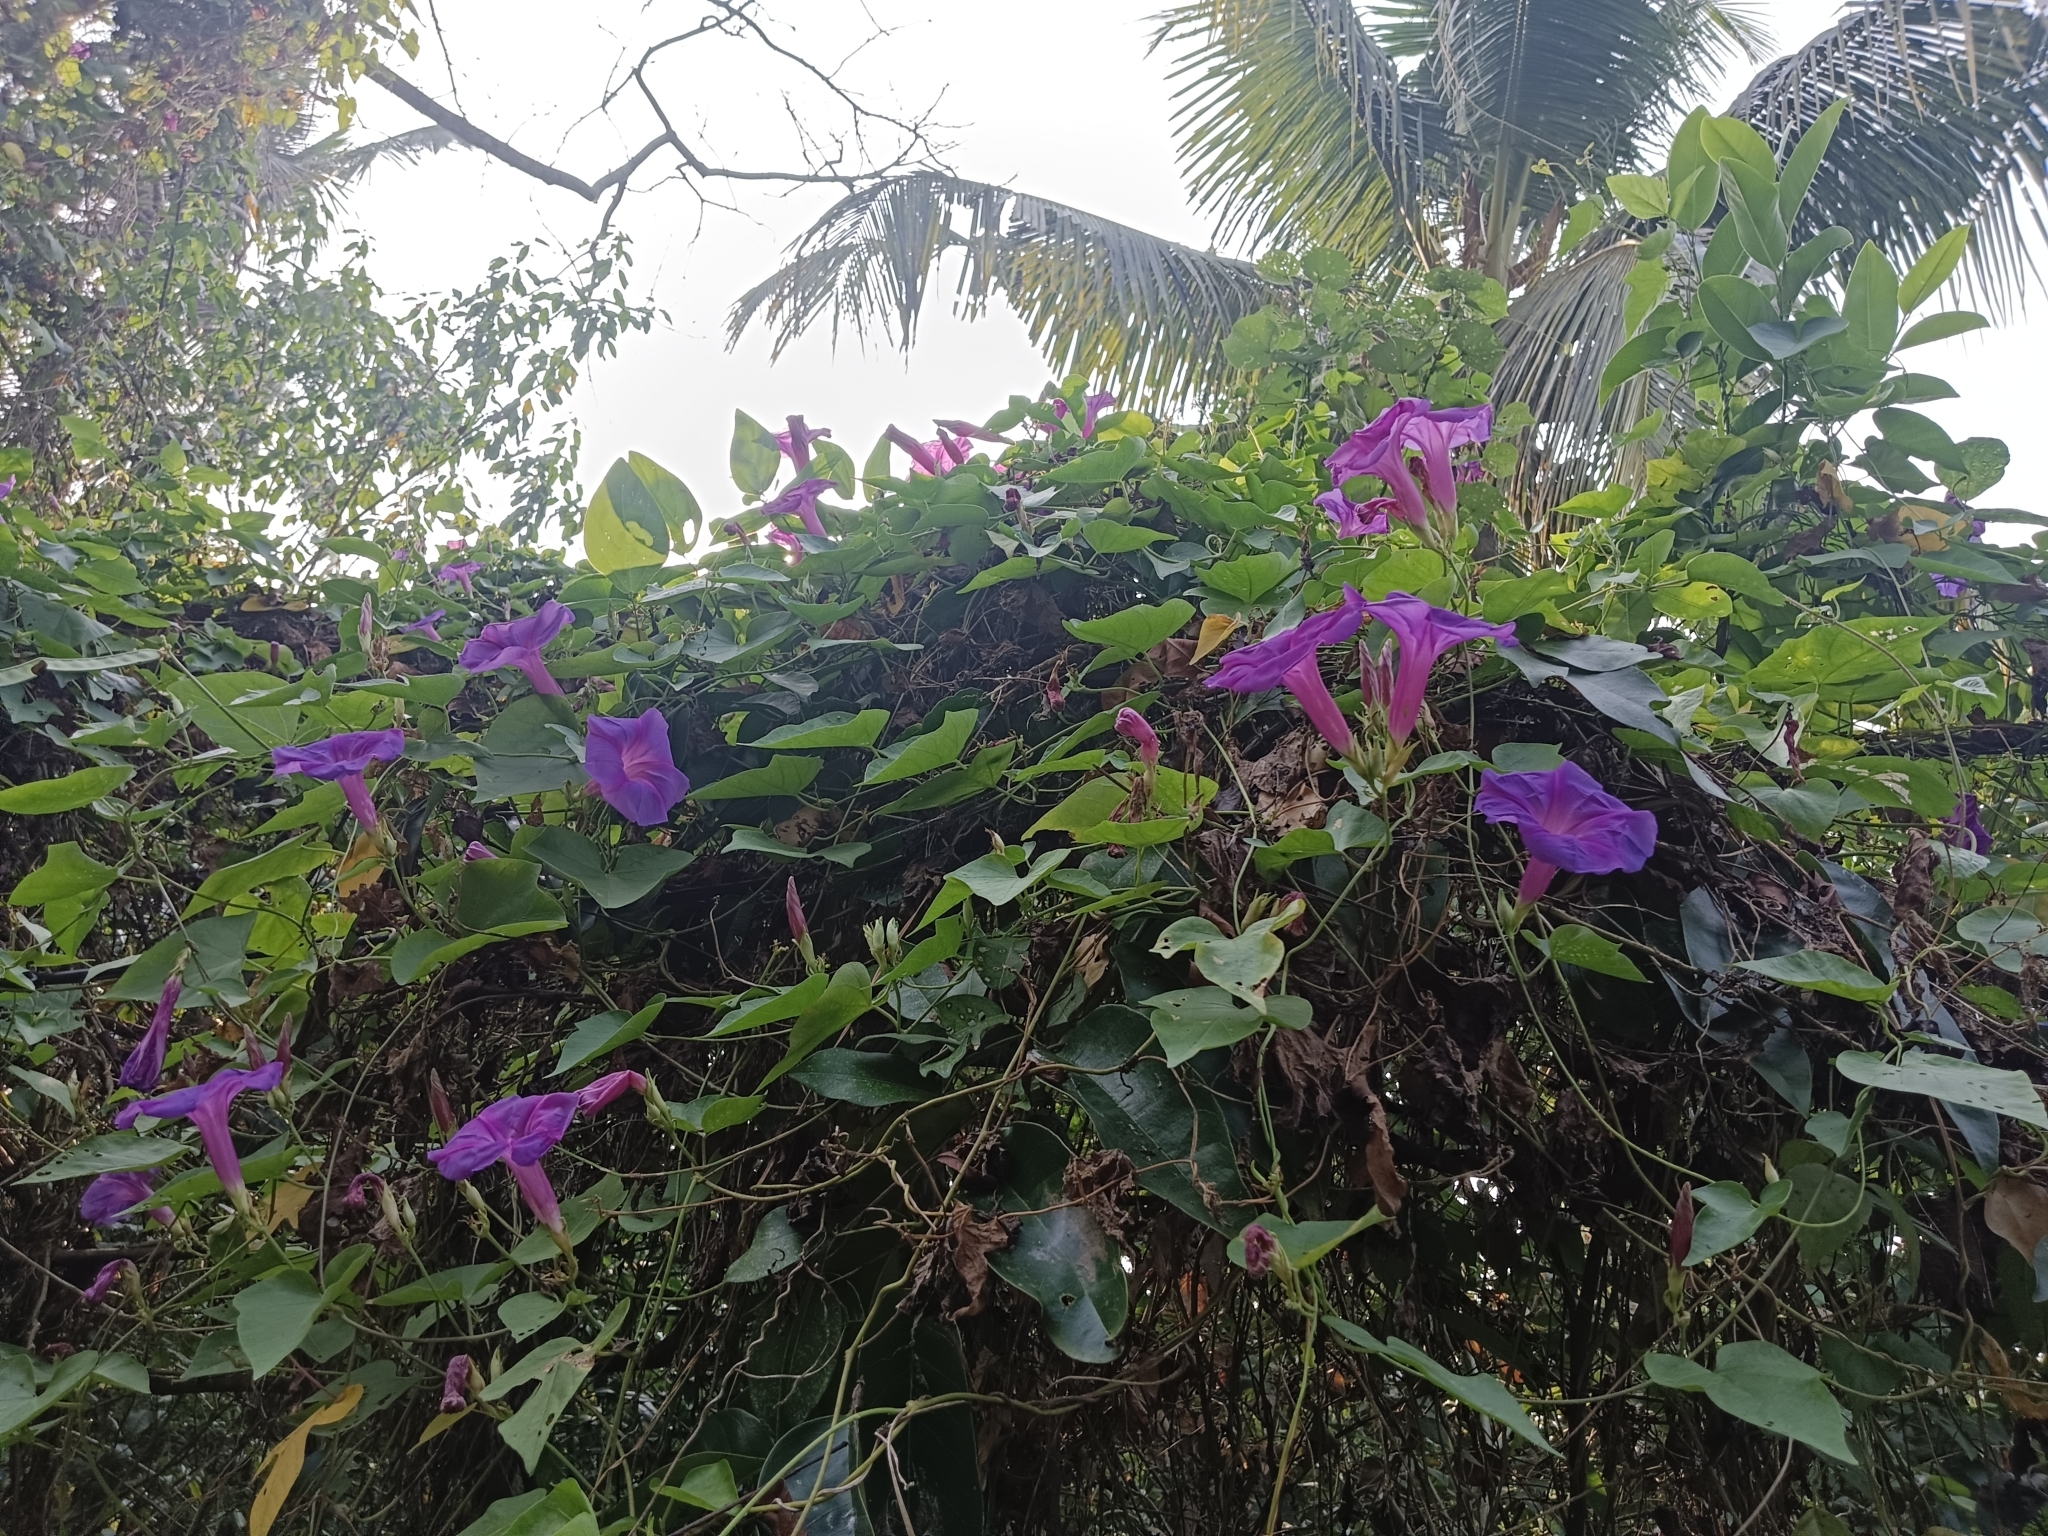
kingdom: Plantae
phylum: Tracheophyta
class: Magnoliopsida
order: Solanales
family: Convolvulaceae
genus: Ipomoea
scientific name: Ipomoea indica
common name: Blue dawnflower
